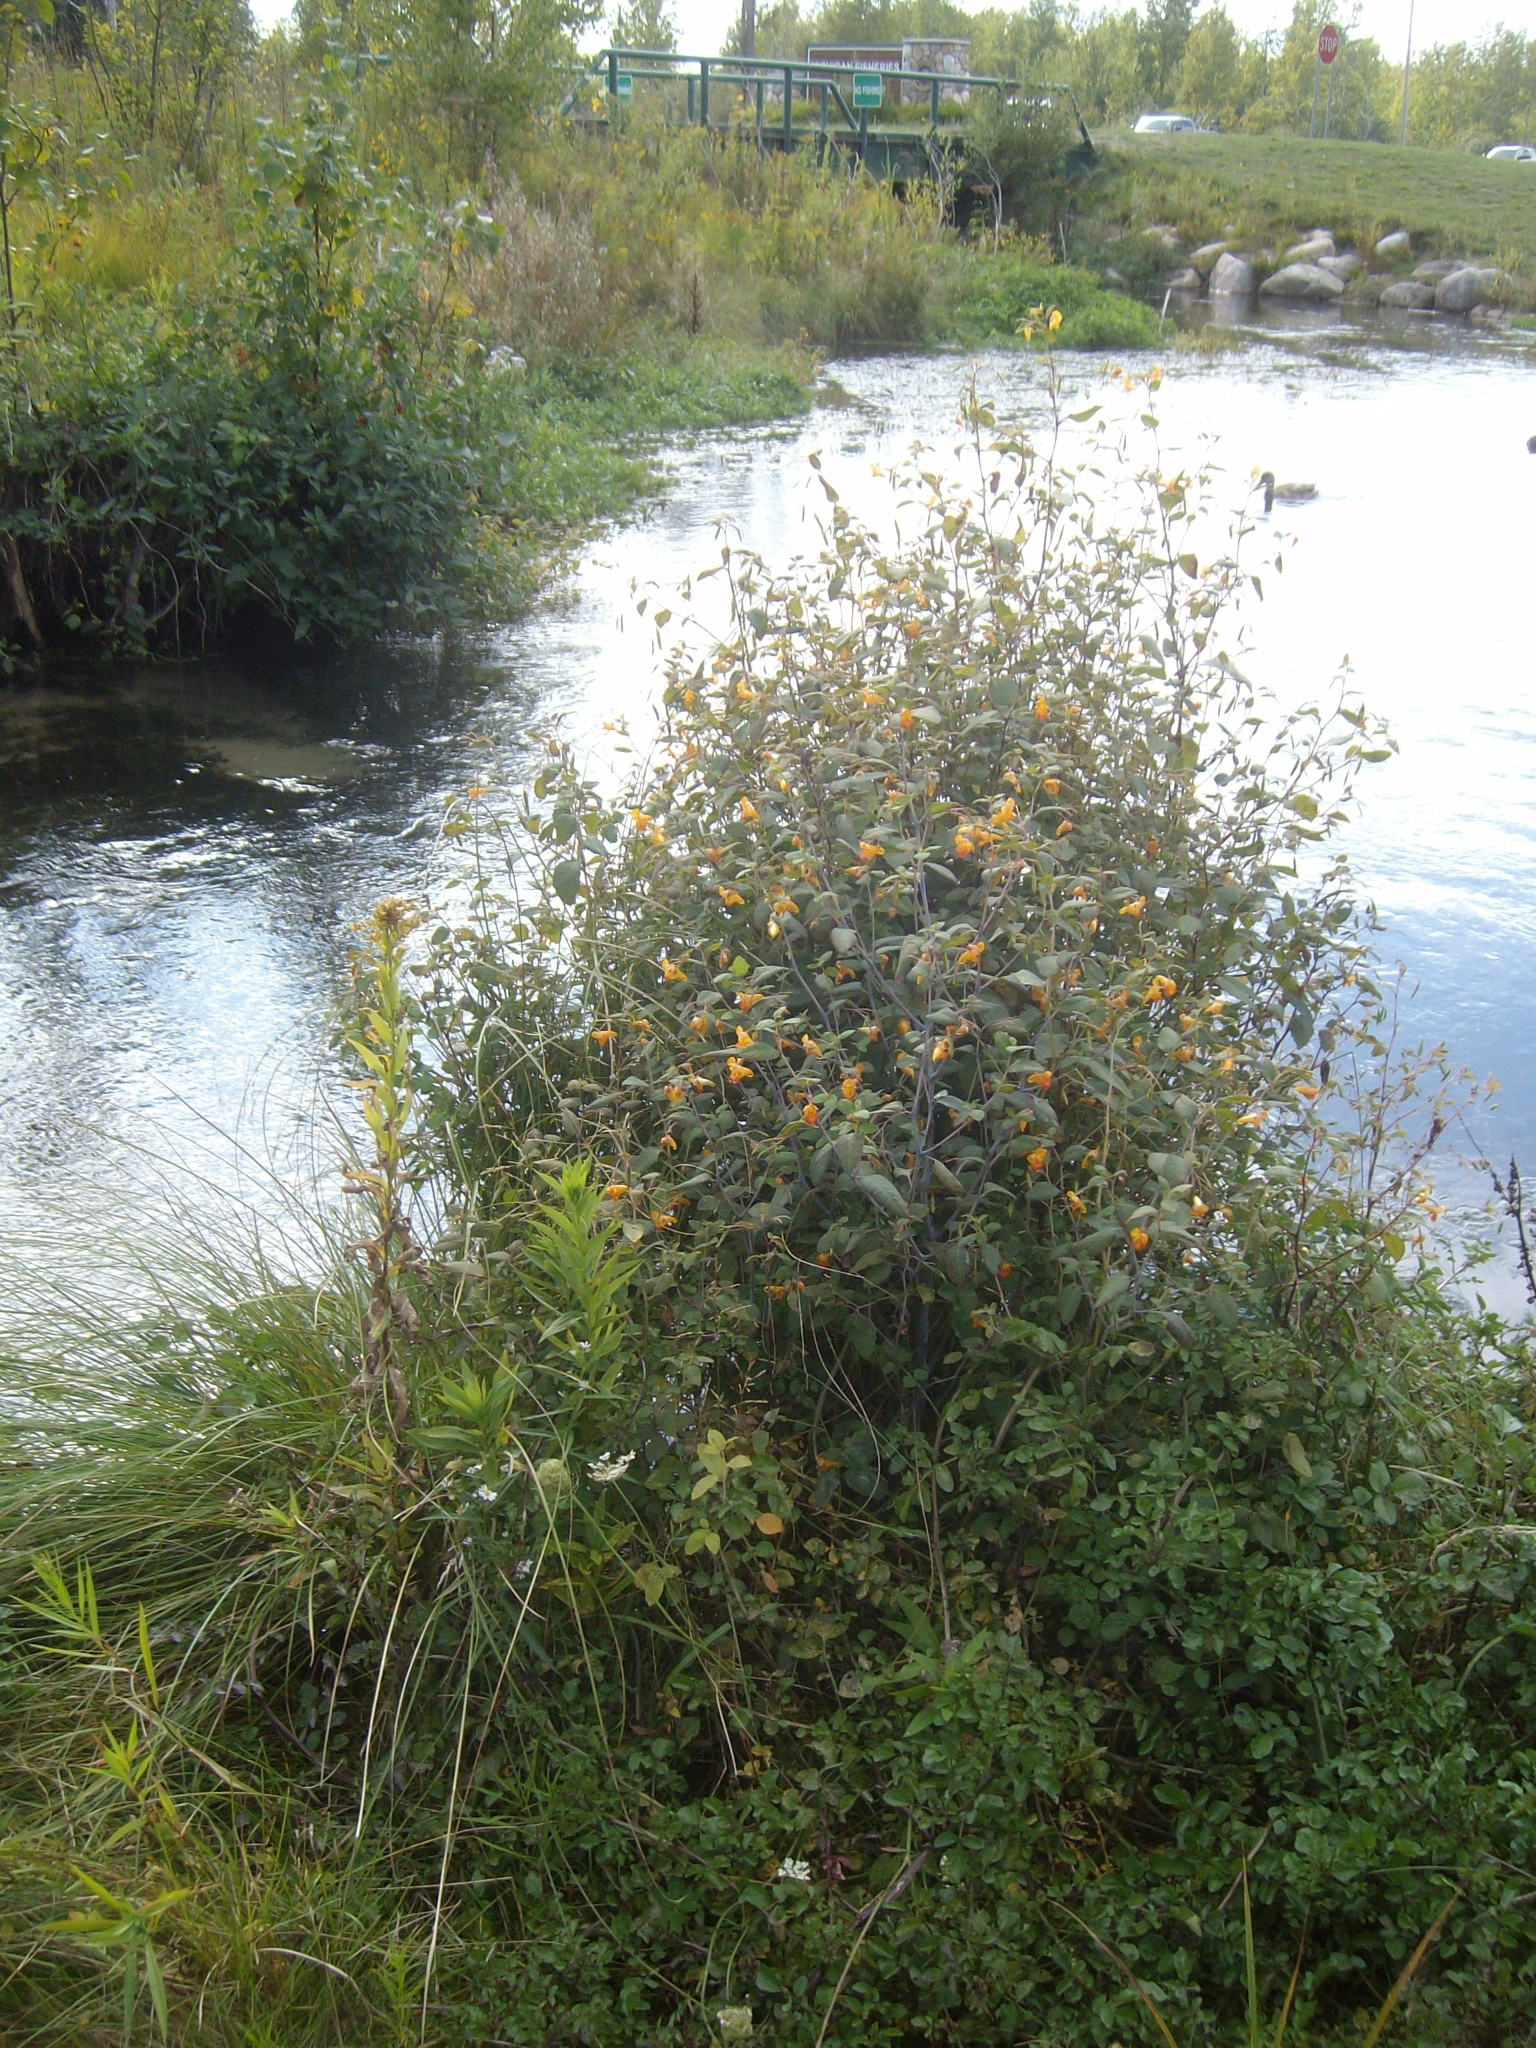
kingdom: Plantae
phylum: Tracheophyta
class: Magnoliopsida
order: Ericales
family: Balsaminaceae
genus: Impatiens
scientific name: Impatiens capensis
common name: Orange balsam
